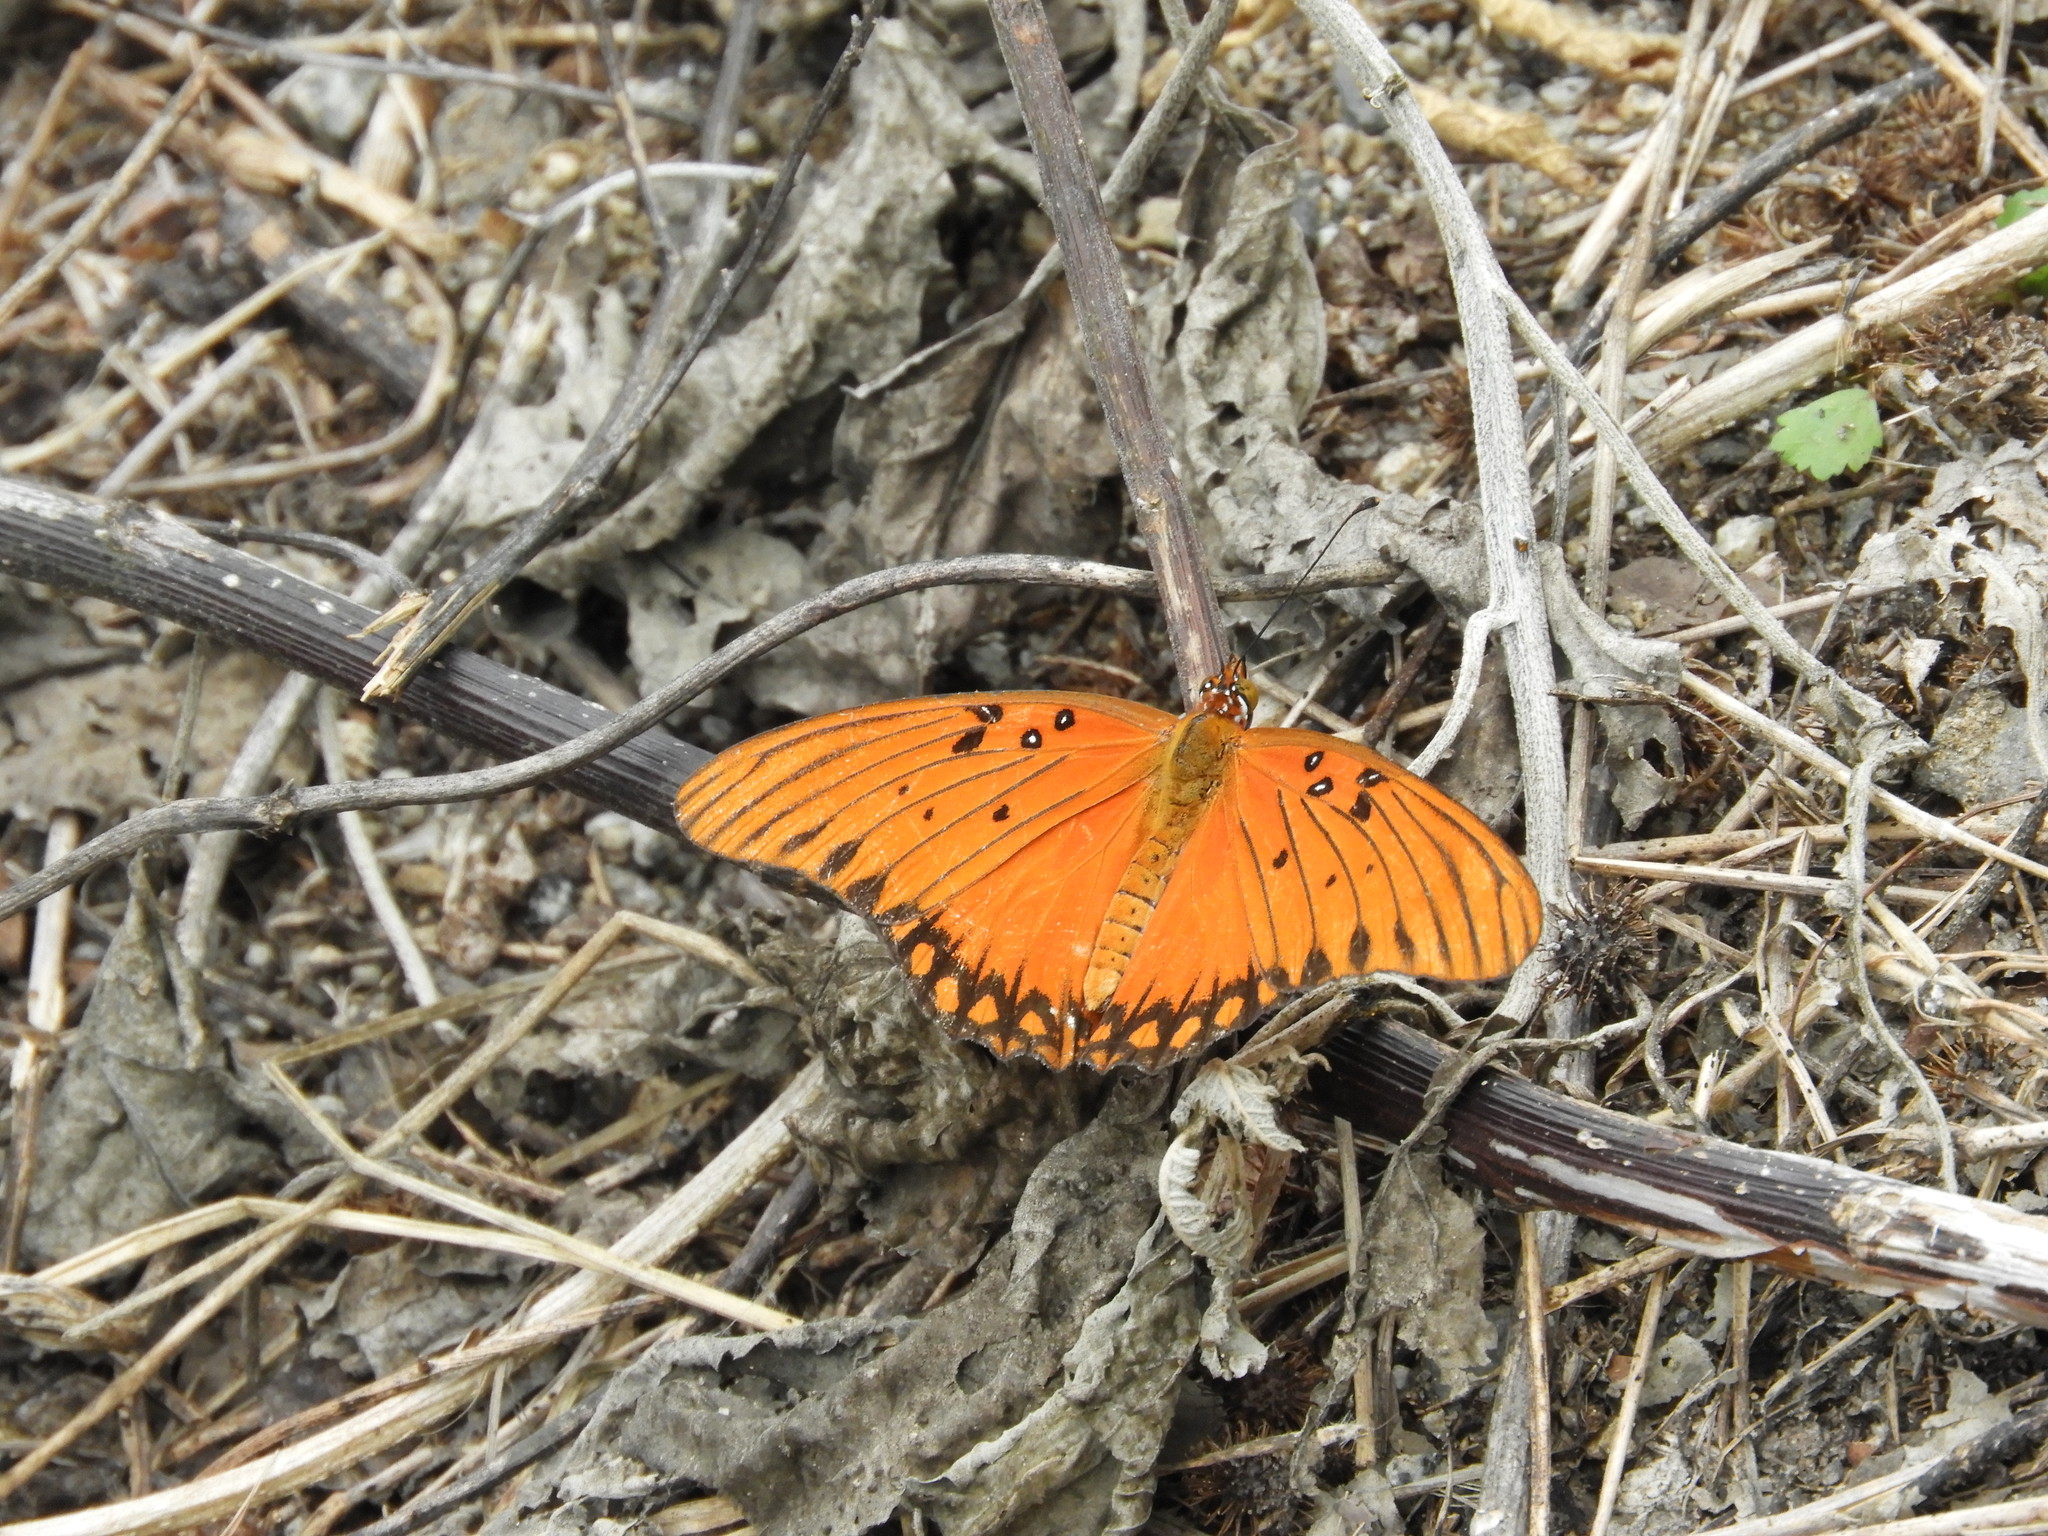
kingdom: Animalia
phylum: Arthropoda
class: Insecta
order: Lepidoptera
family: Nymphalidae
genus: Dione
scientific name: Dione vanillae
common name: Gulf fritillary
